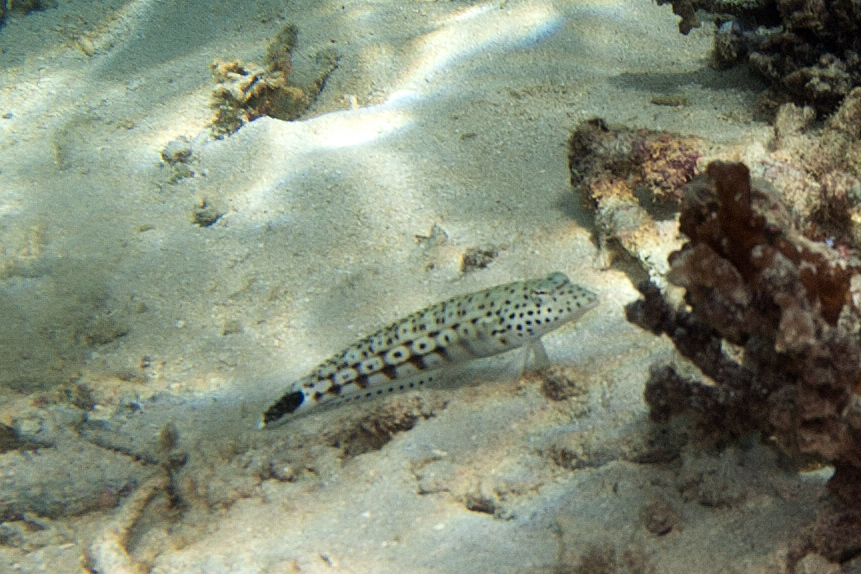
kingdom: Animalia
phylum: Chordata
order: Perciformes
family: Pinguipedidae
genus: Parapercis
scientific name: Parapercis xanthogramma
